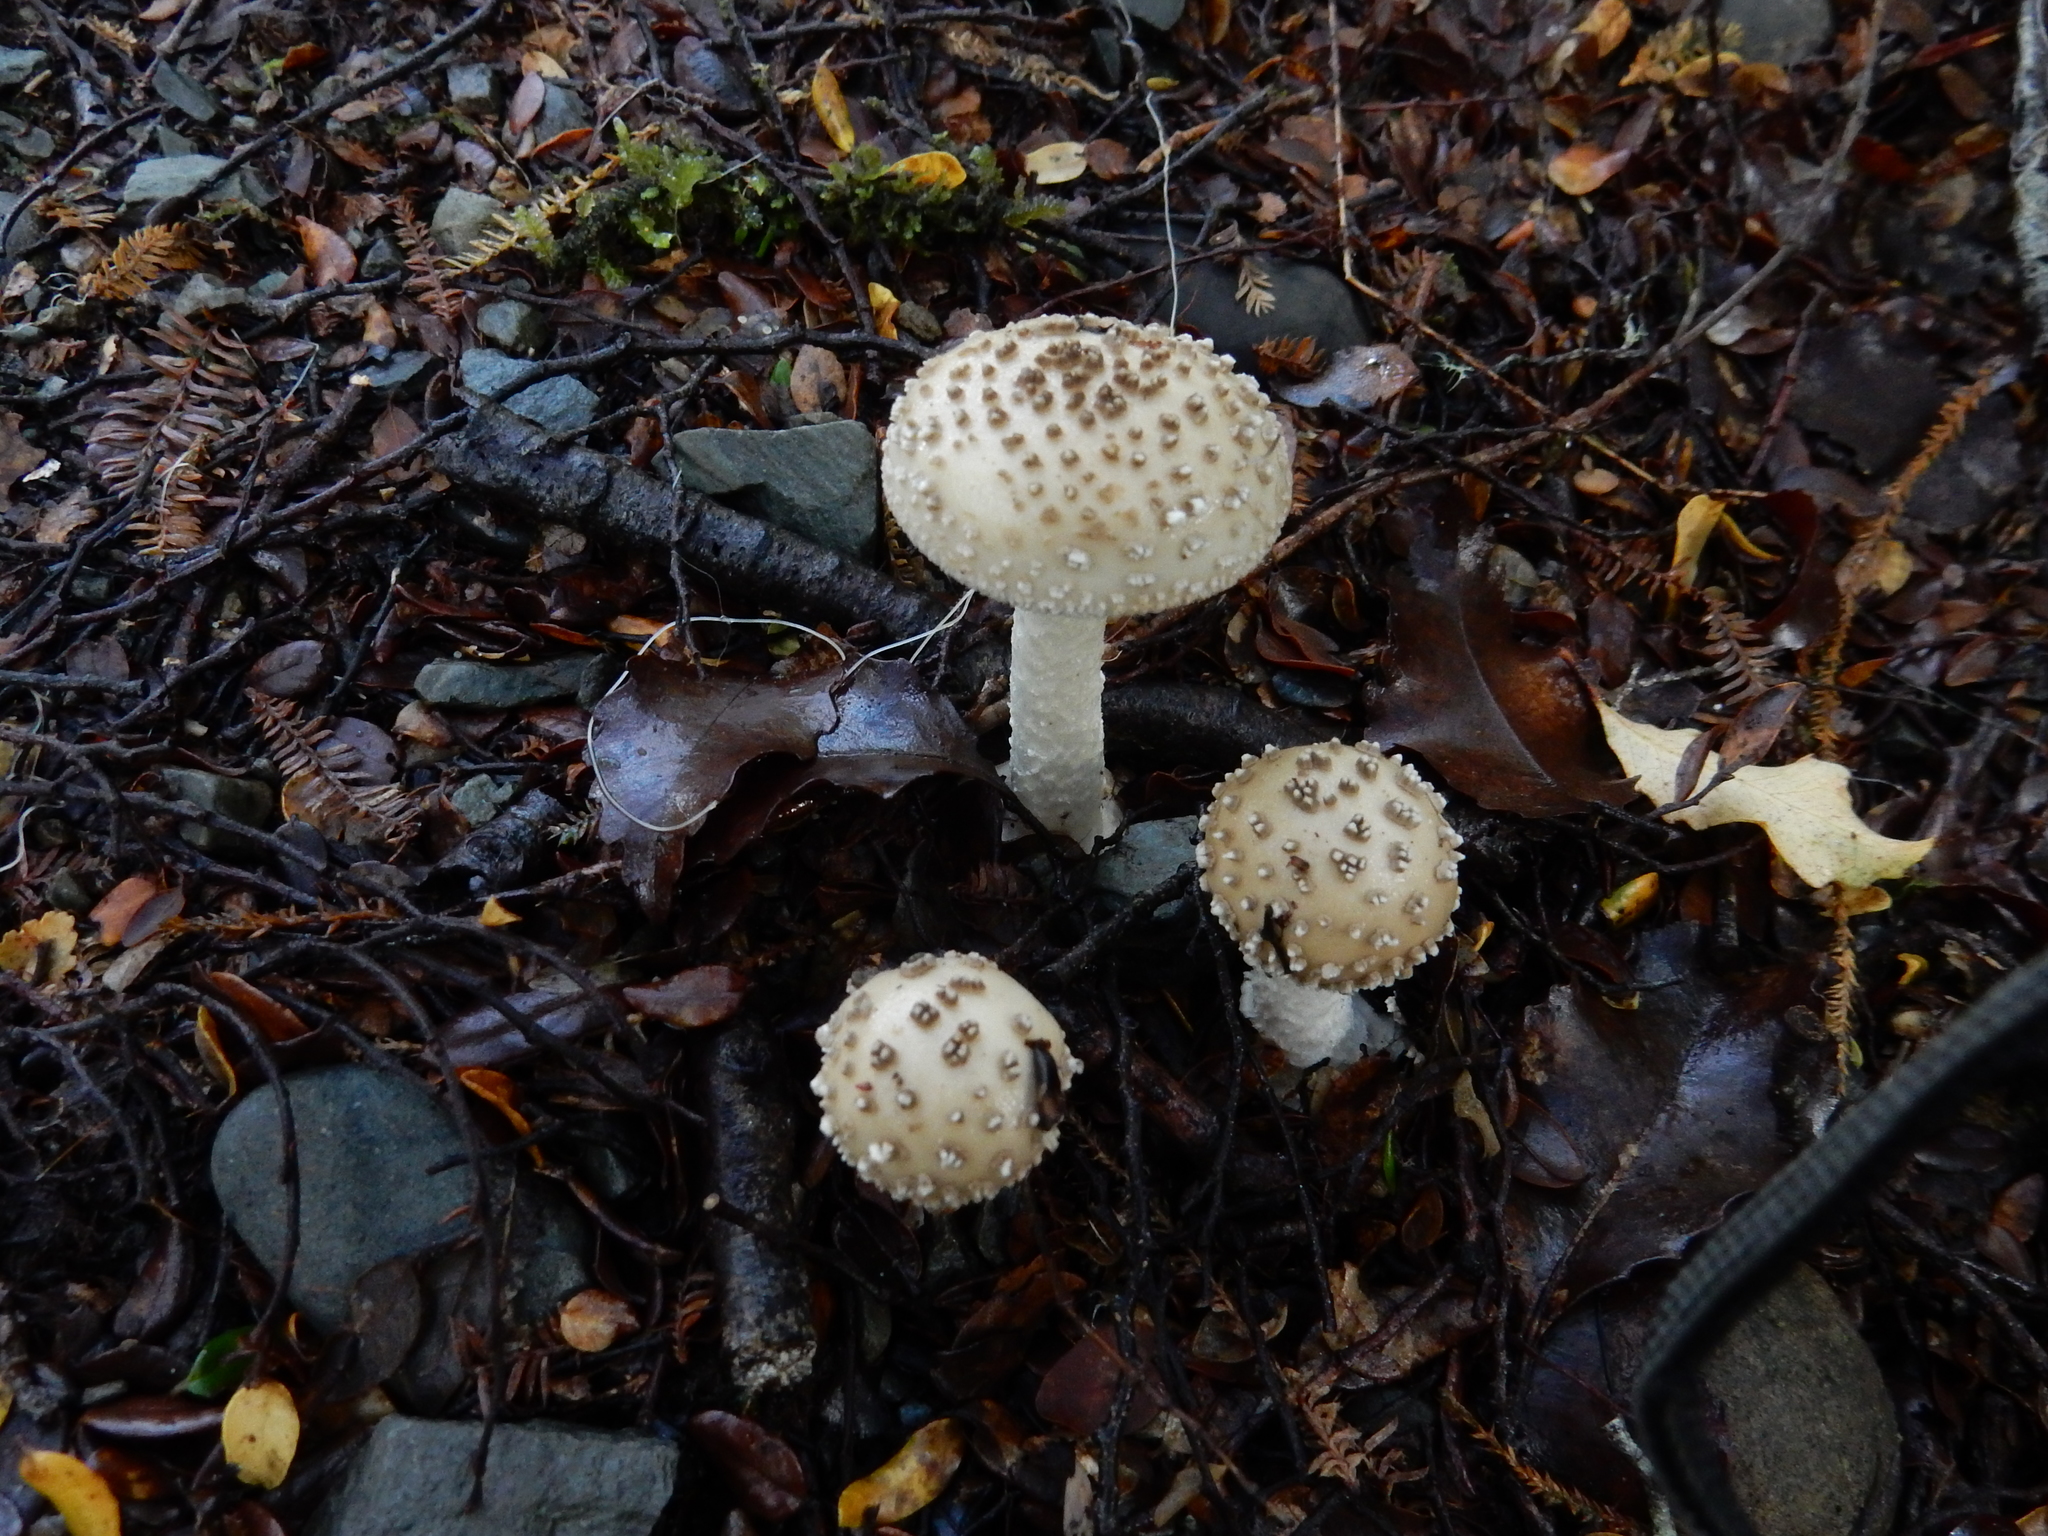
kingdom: Fungi
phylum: Basidiomycota
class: Agaricomycetes
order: Agaricales
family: Amanitaceae
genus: Amanita
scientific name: Amanita australis
